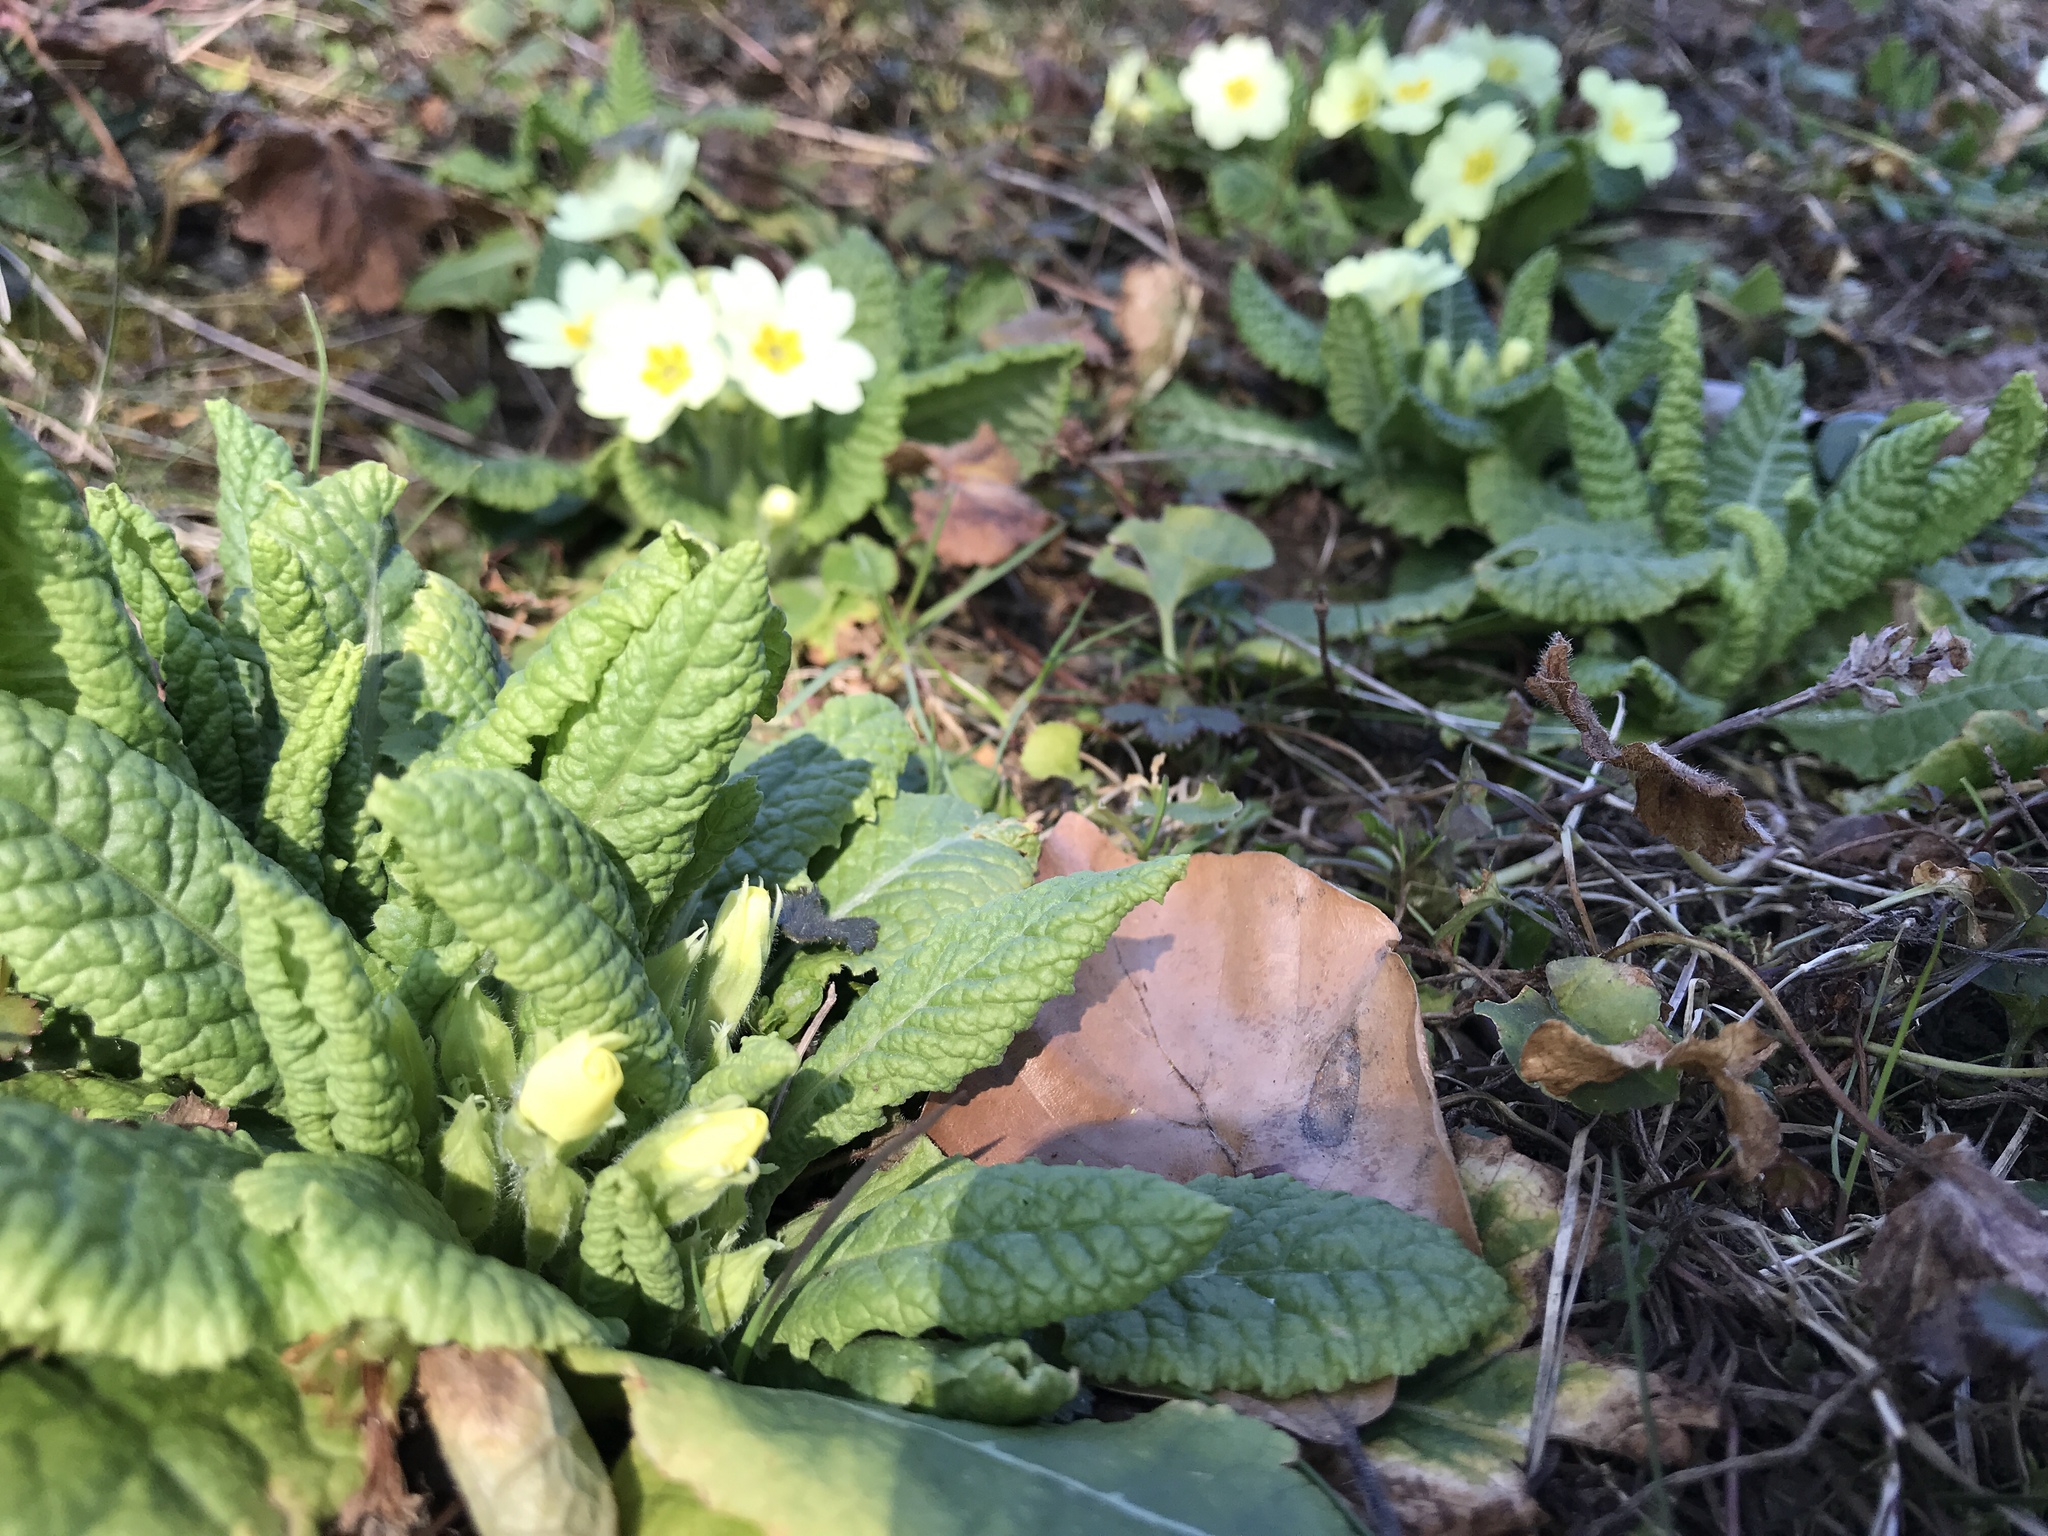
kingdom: Plantae
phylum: Tracheophyta
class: Magnoliopsida
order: Ericales
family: Primulaceae
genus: Primula
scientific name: Primula vulgaris
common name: Primrose
